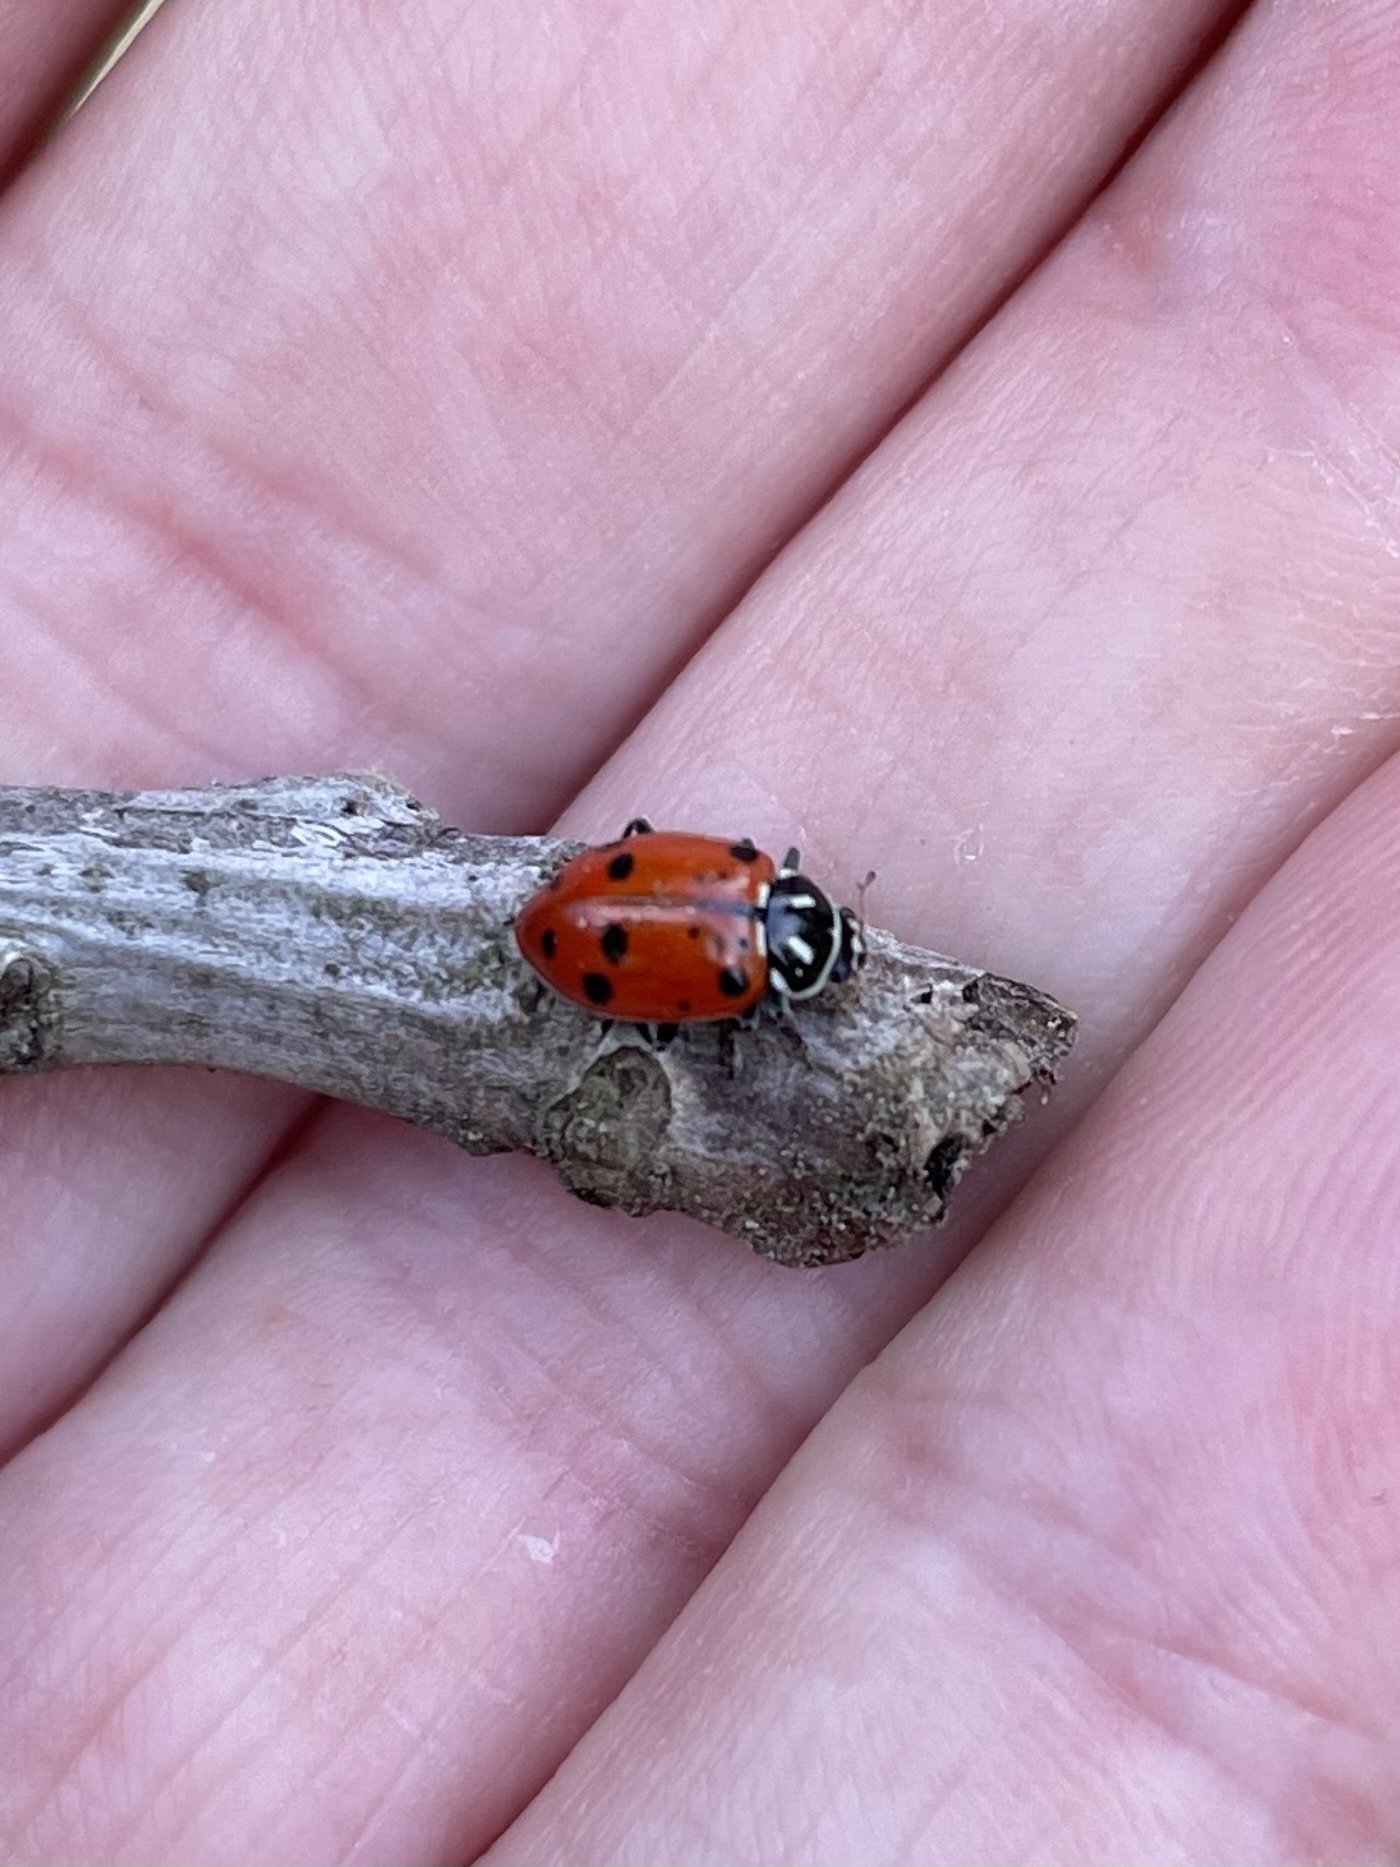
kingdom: Animalia
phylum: Arthropoda
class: Insecta
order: Coleoptera
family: Coccinellidae
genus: Hippodamia
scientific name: Hippodamia convergens
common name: Convergent lady beetle
